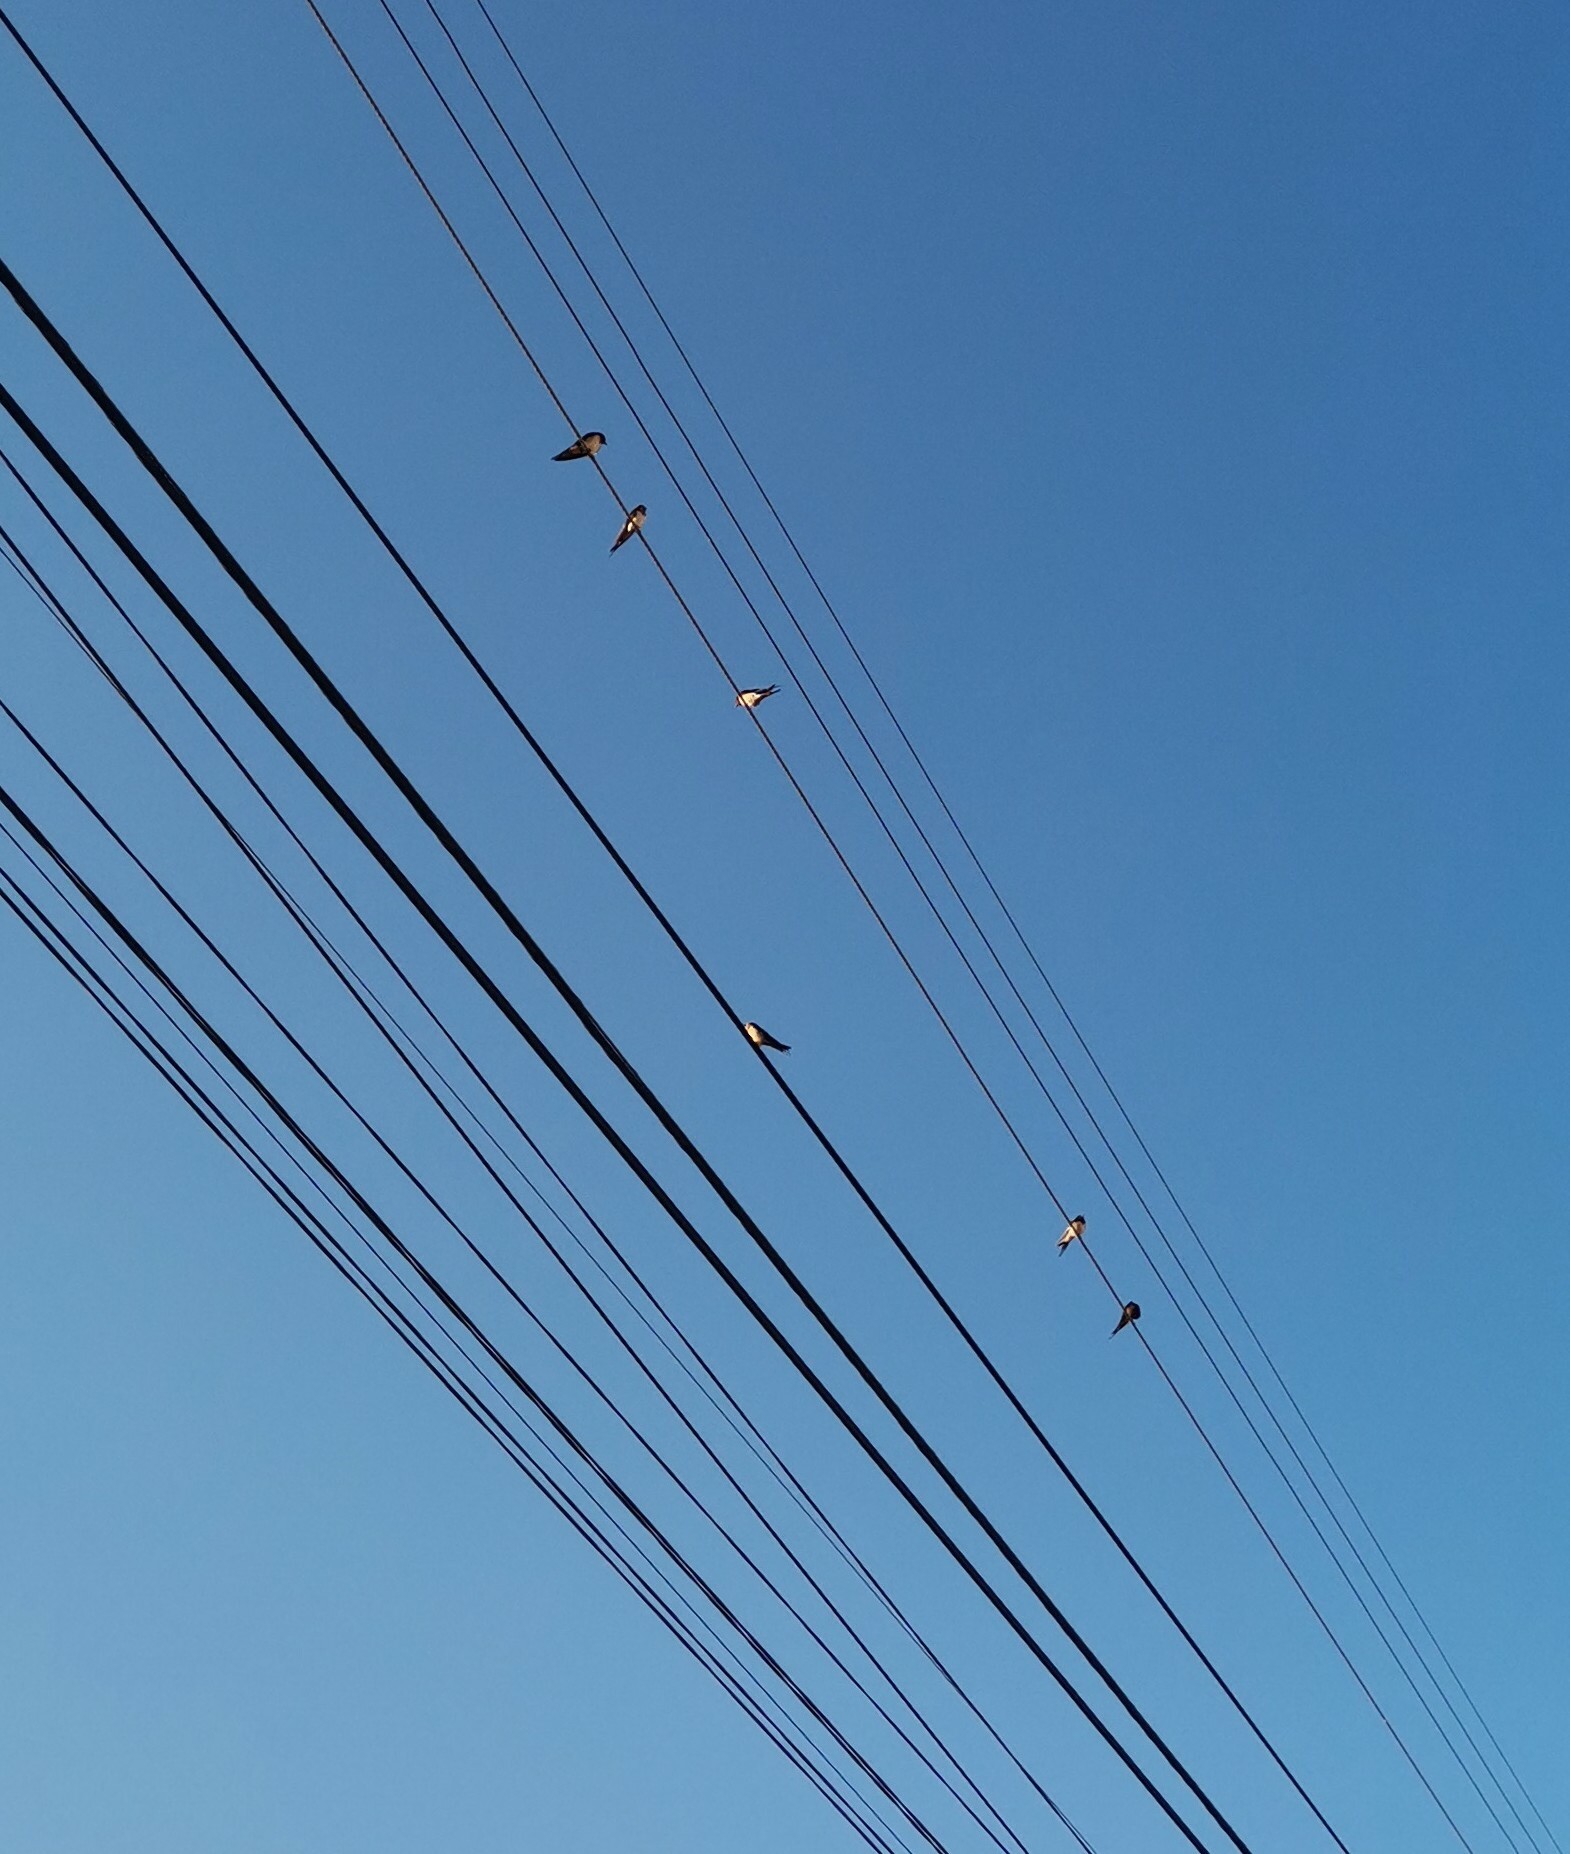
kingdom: Animalia
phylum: Chordata
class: Aves
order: Passeriformes
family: Hirundinidae
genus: Hirundo
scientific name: Hirundo rustica
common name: Barn swallow
